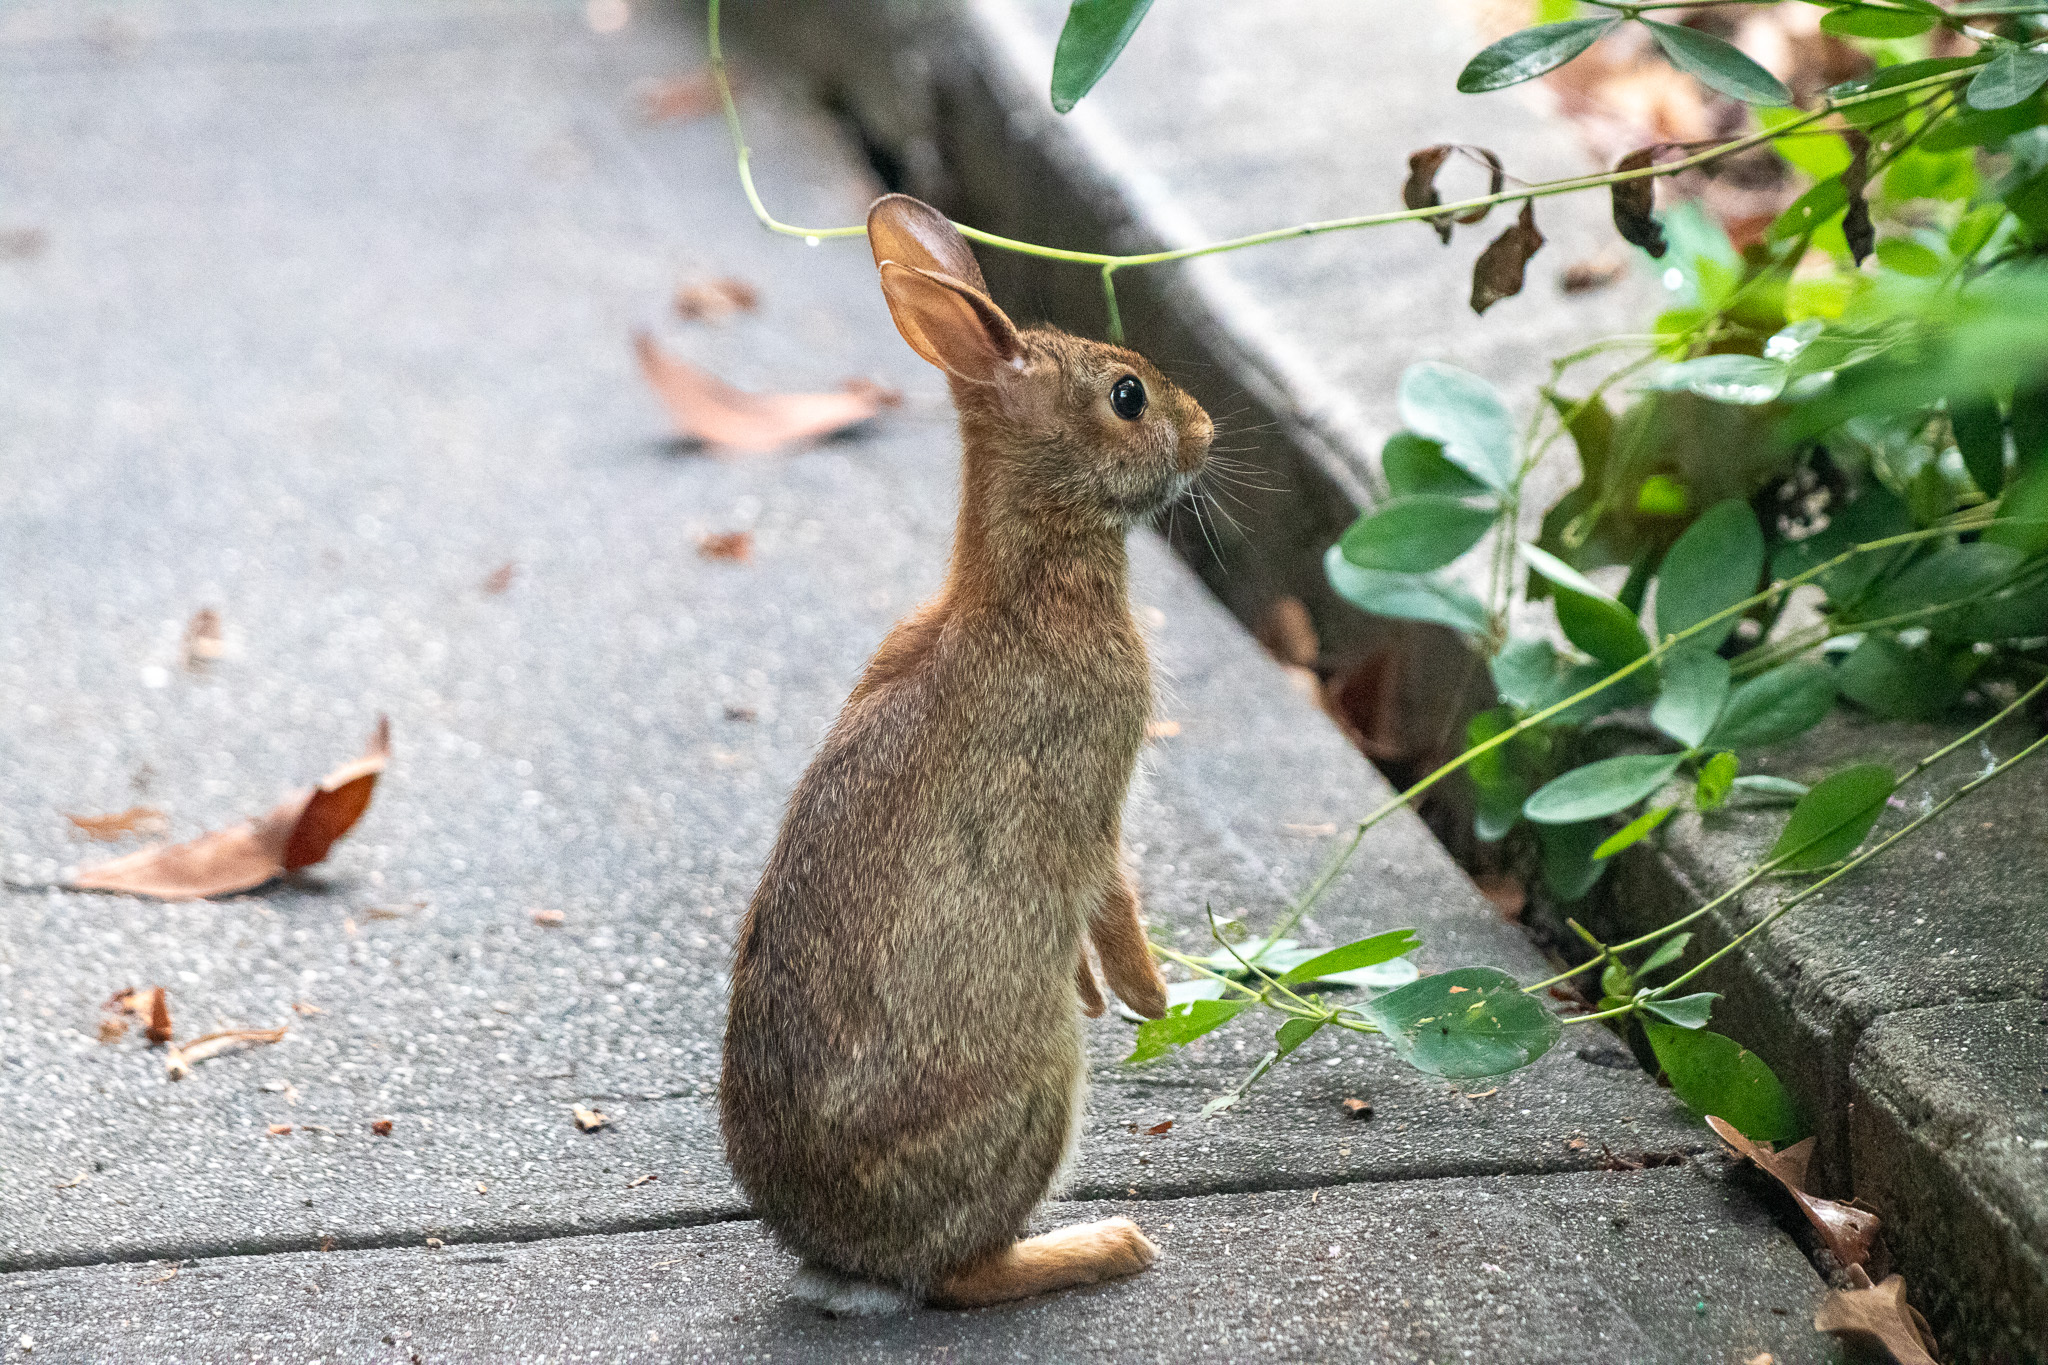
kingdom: Animalia
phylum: Chordata
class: Mammalia
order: Lagomorpha
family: Leporidae
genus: Sylvilagus
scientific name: Sylvilagus floridanus
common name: Eastern cottontail
